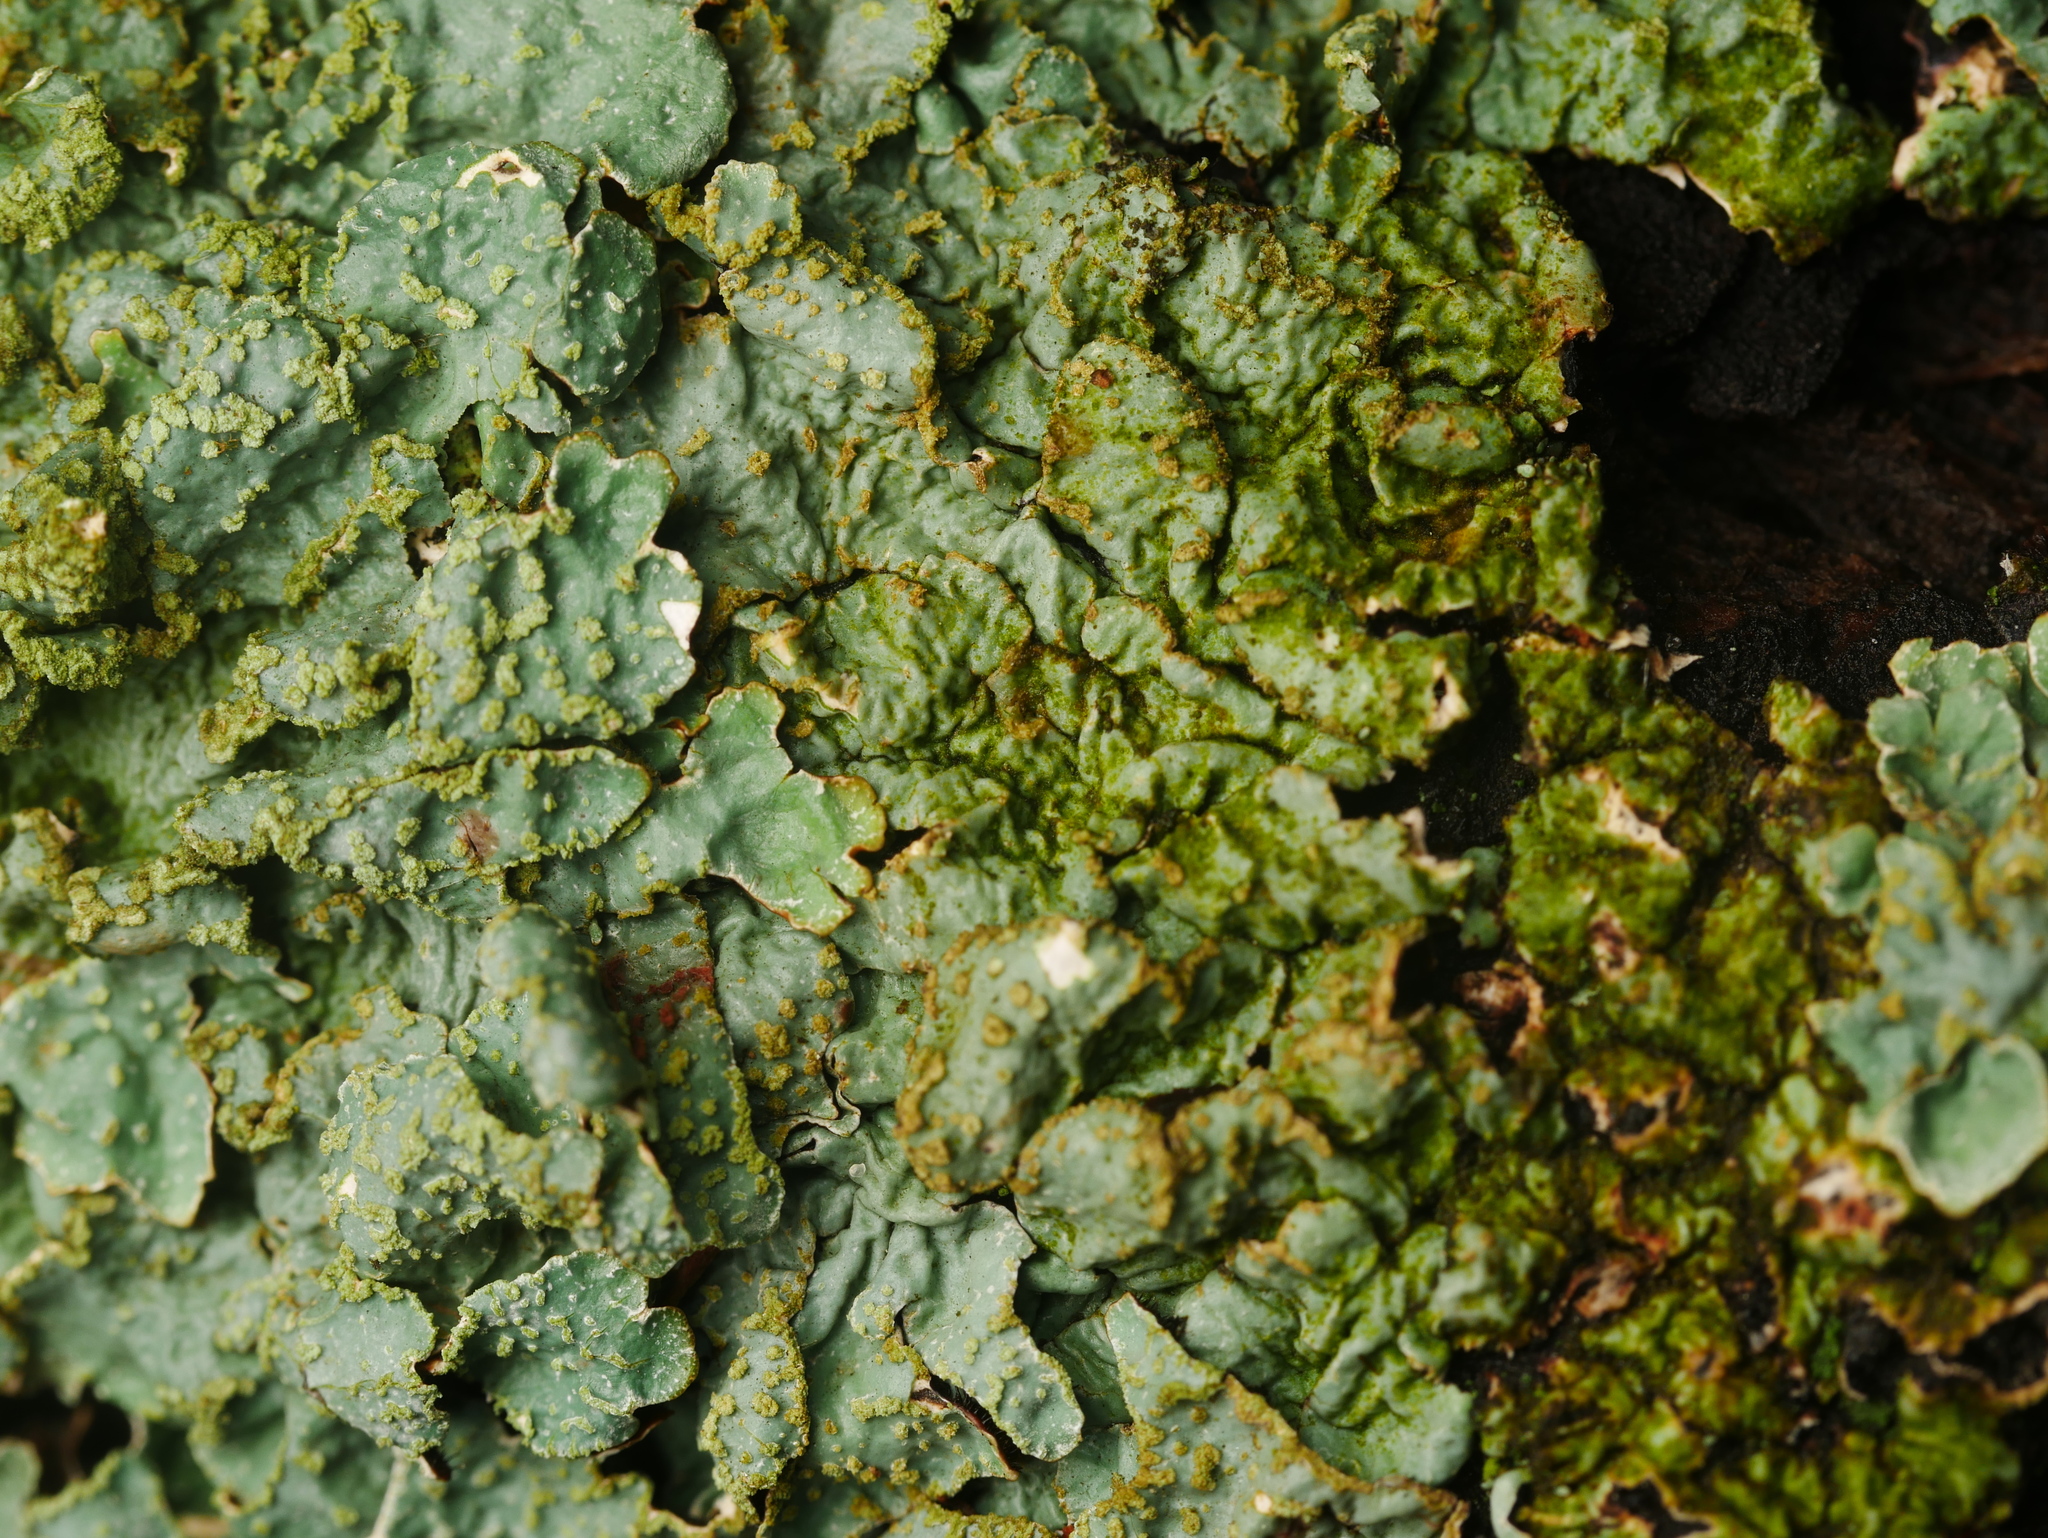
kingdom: Fungi
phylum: Ascomycota
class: Lecanoromycetes
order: Lecanorales
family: Parmeliaceae
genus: Parmelia
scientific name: Parmelia sulcata
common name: Netted shield lichen
